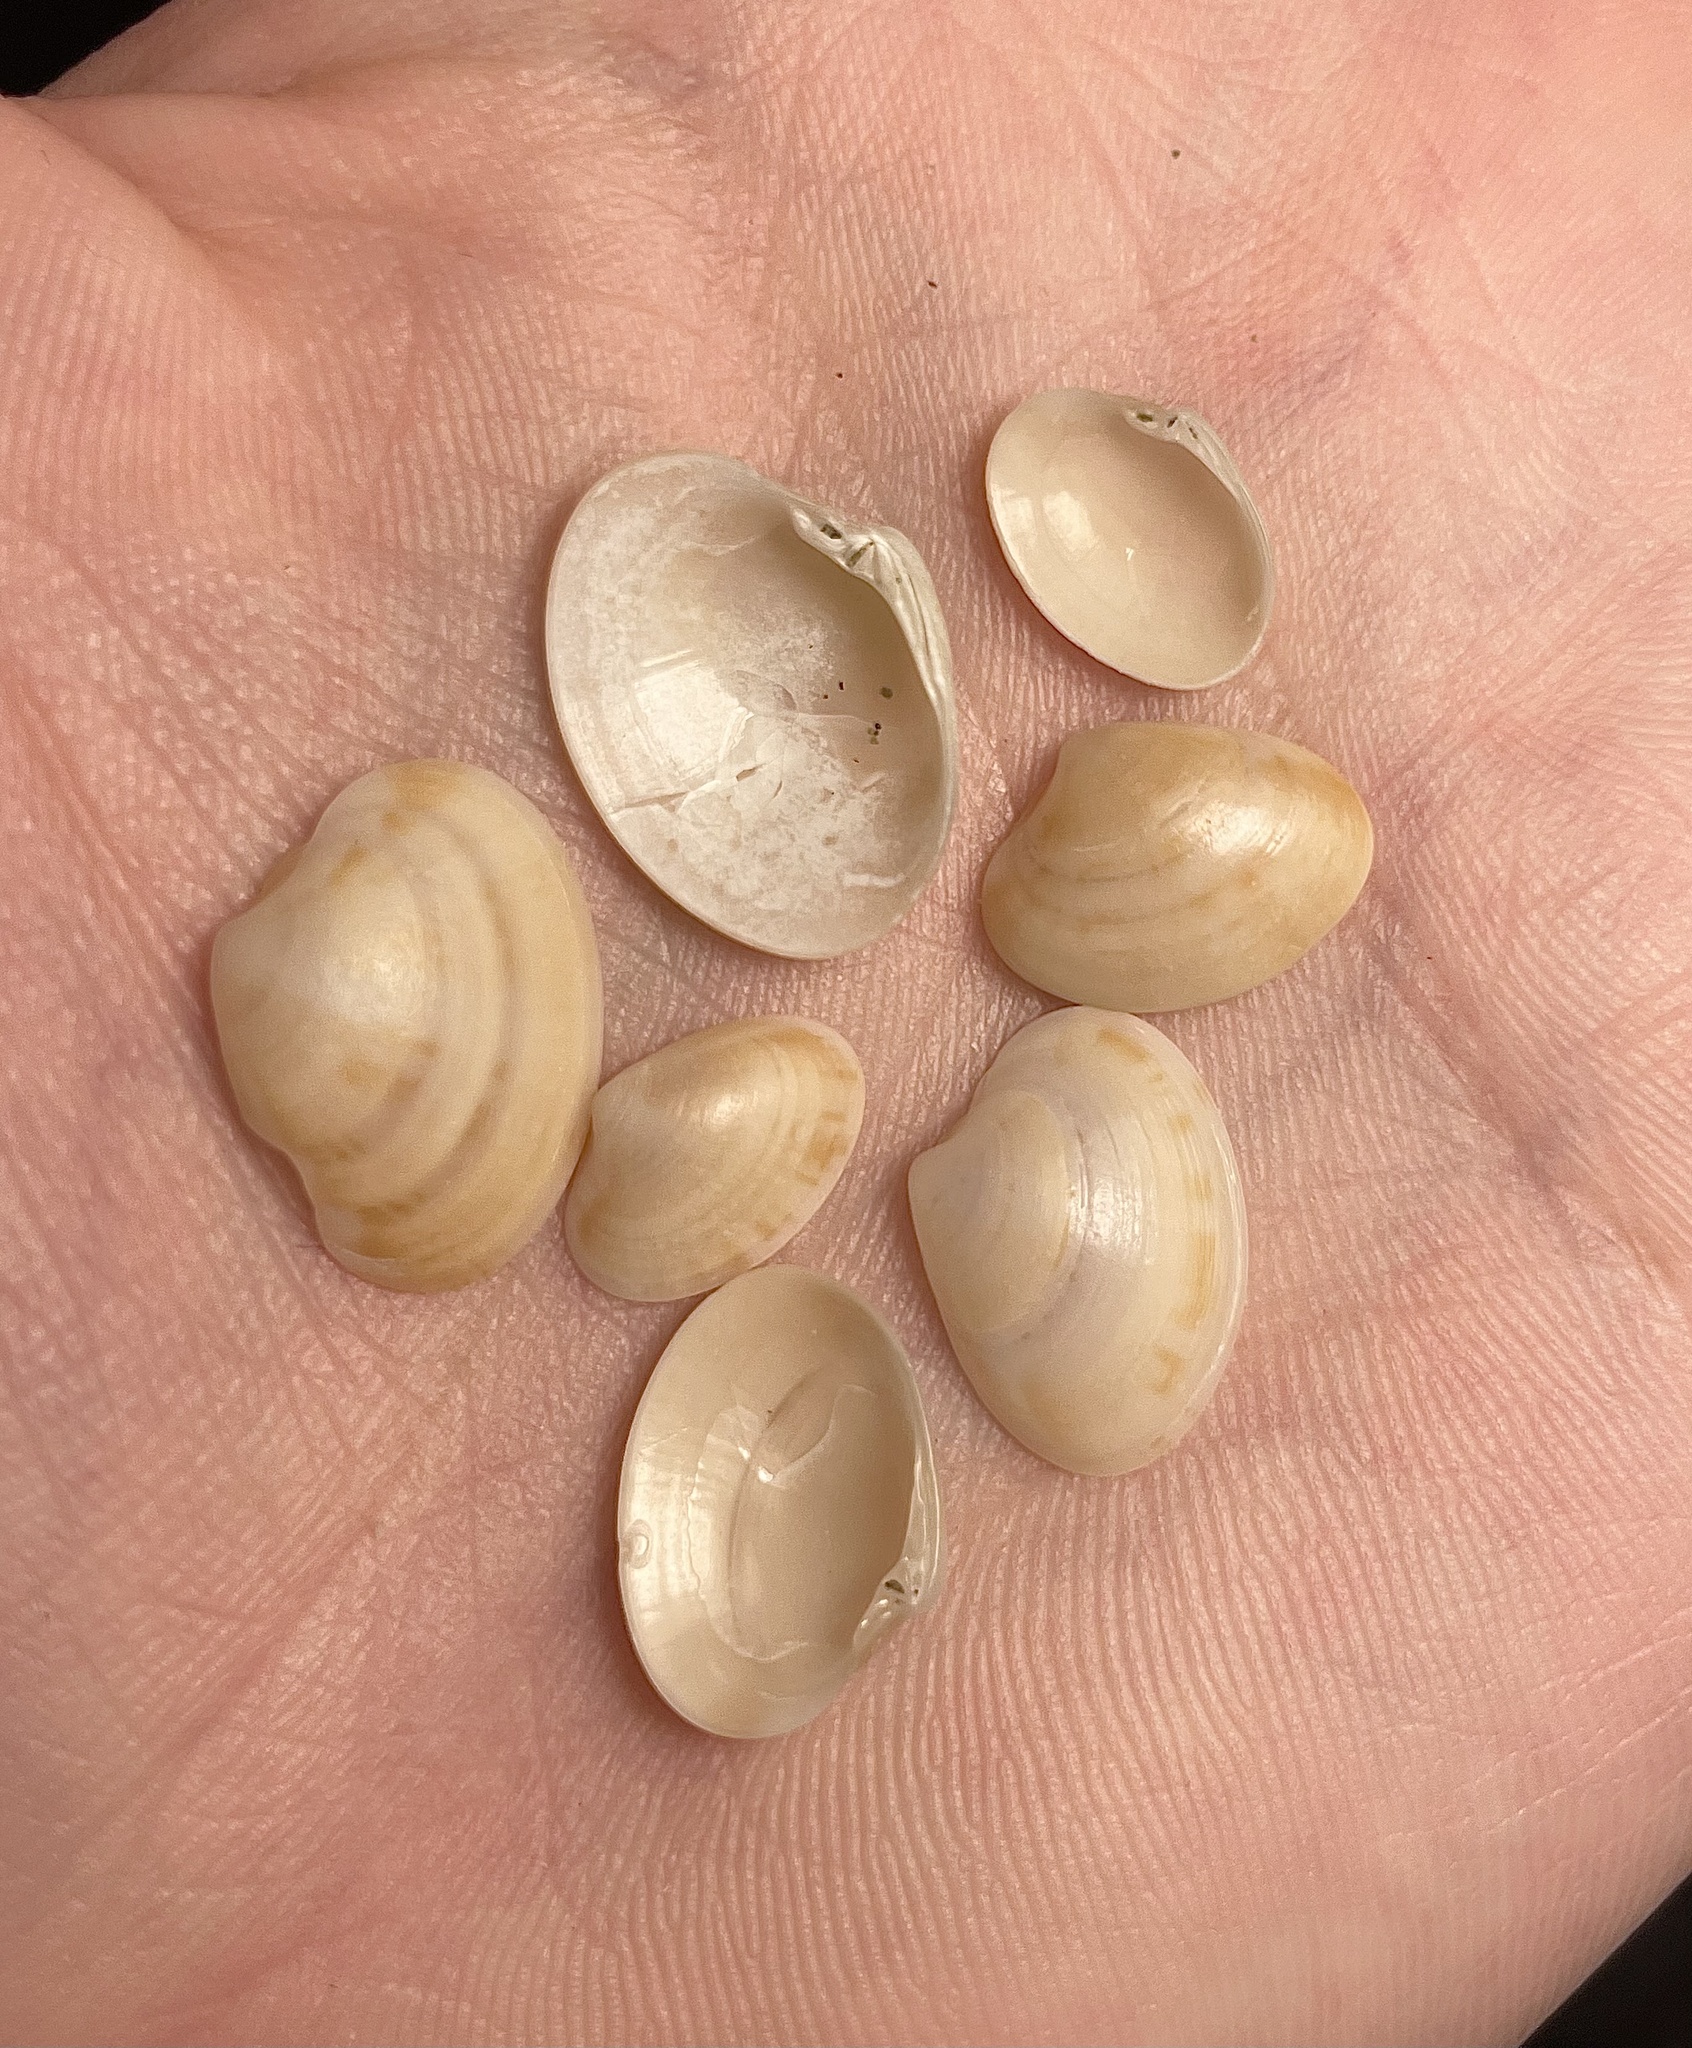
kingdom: Animalia
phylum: Mollusca
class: Bivalvia
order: Venerida
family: Veneridae
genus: Callista
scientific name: Callista chione
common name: Brown venus
